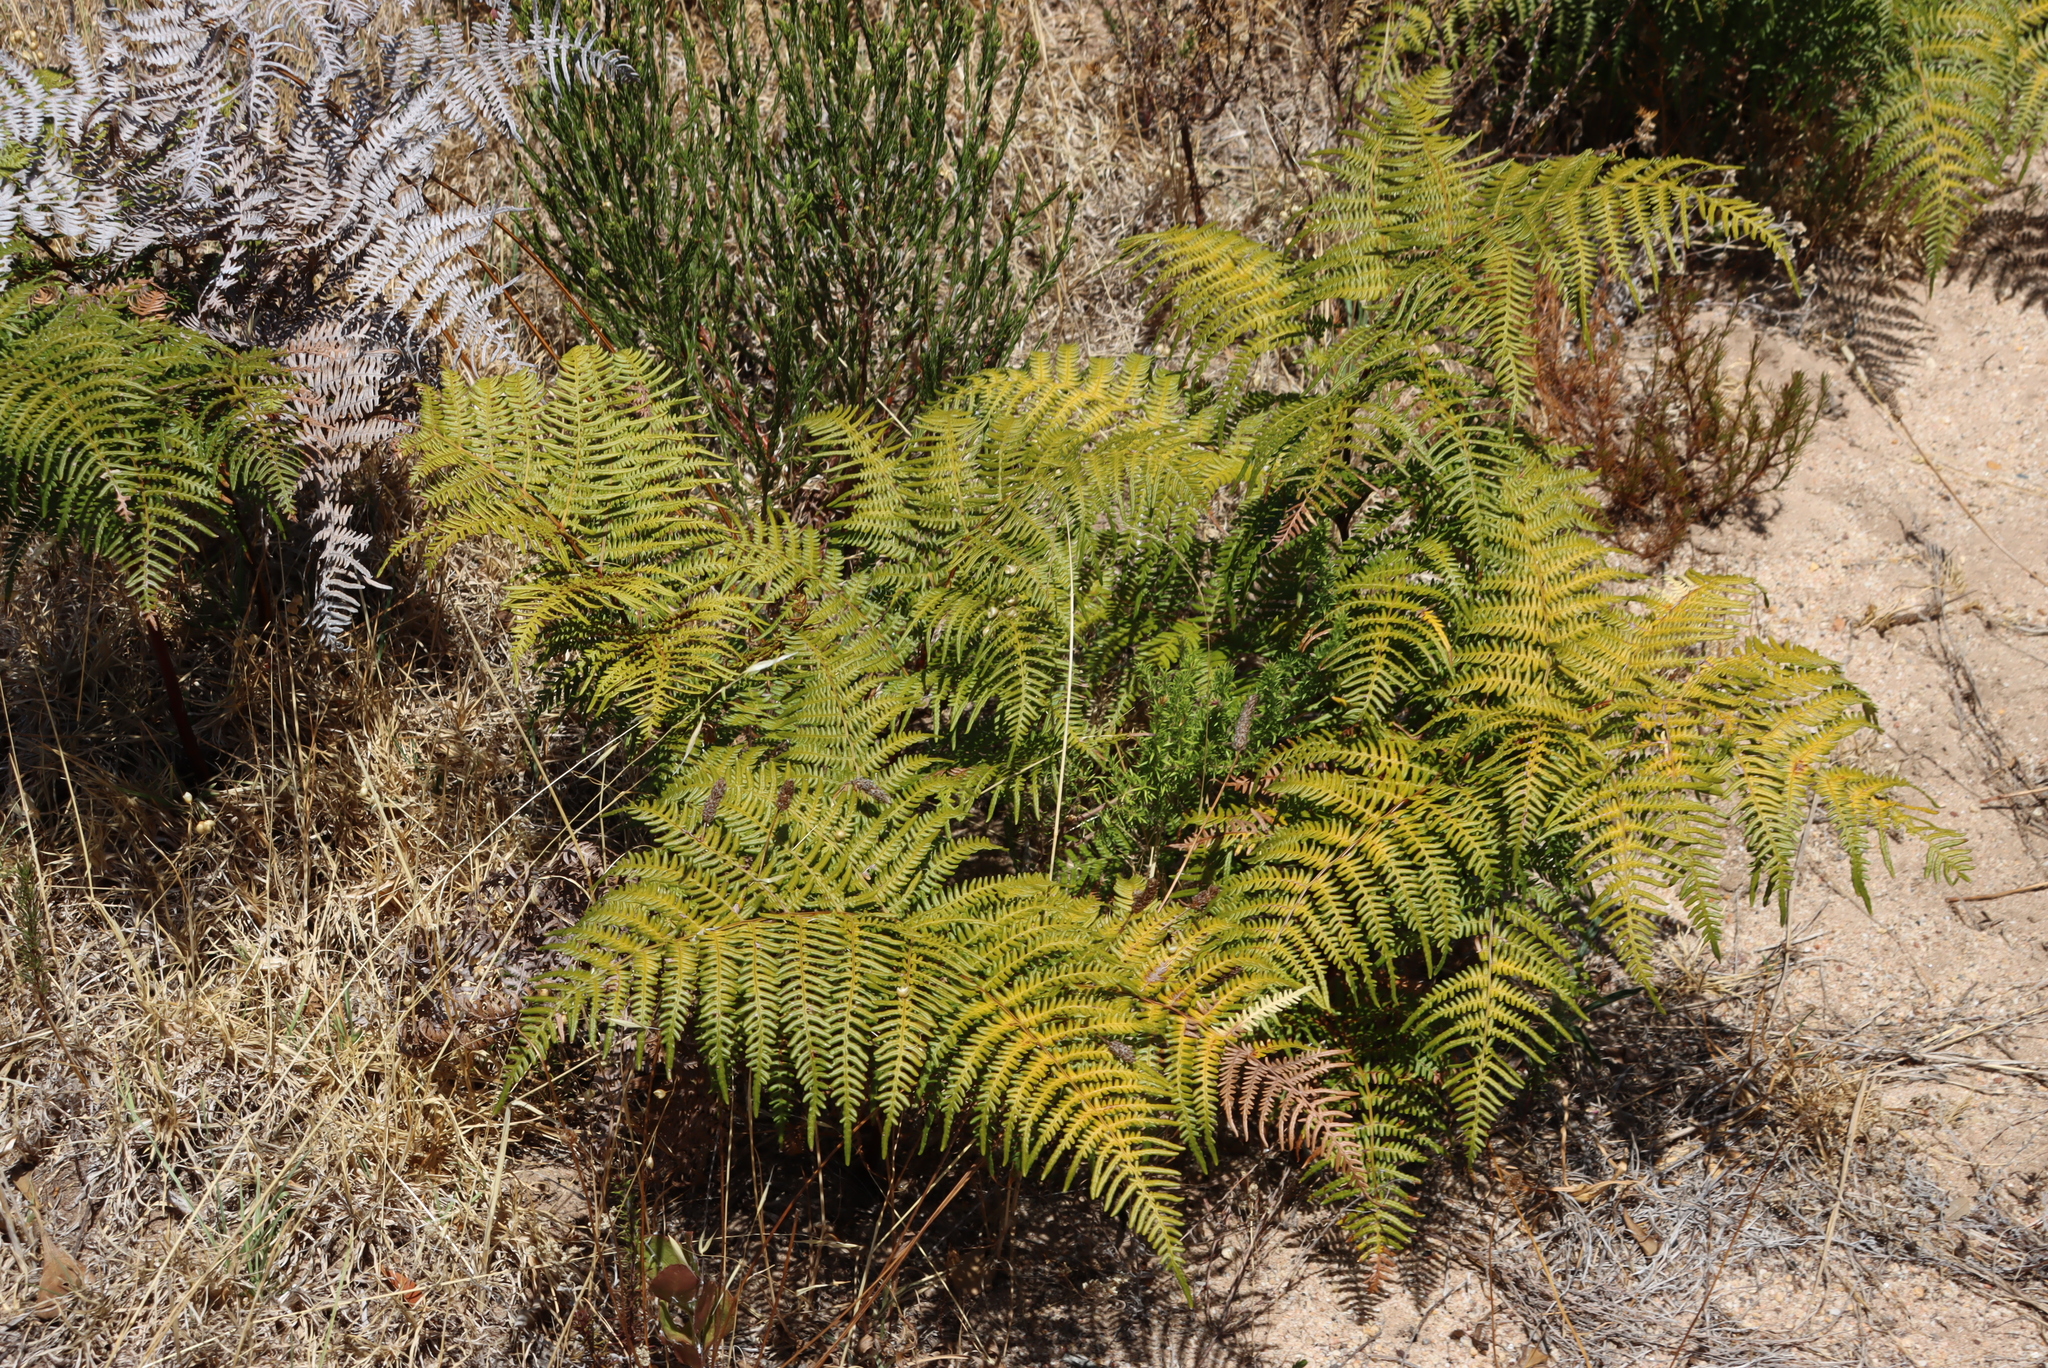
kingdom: Plantae
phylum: Tracheophyta
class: Polypodiopsida
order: Polypodiales
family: Dennstaedtiaceae
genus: Pteridium
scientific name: Pteridium aquilinum
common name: Bracken
